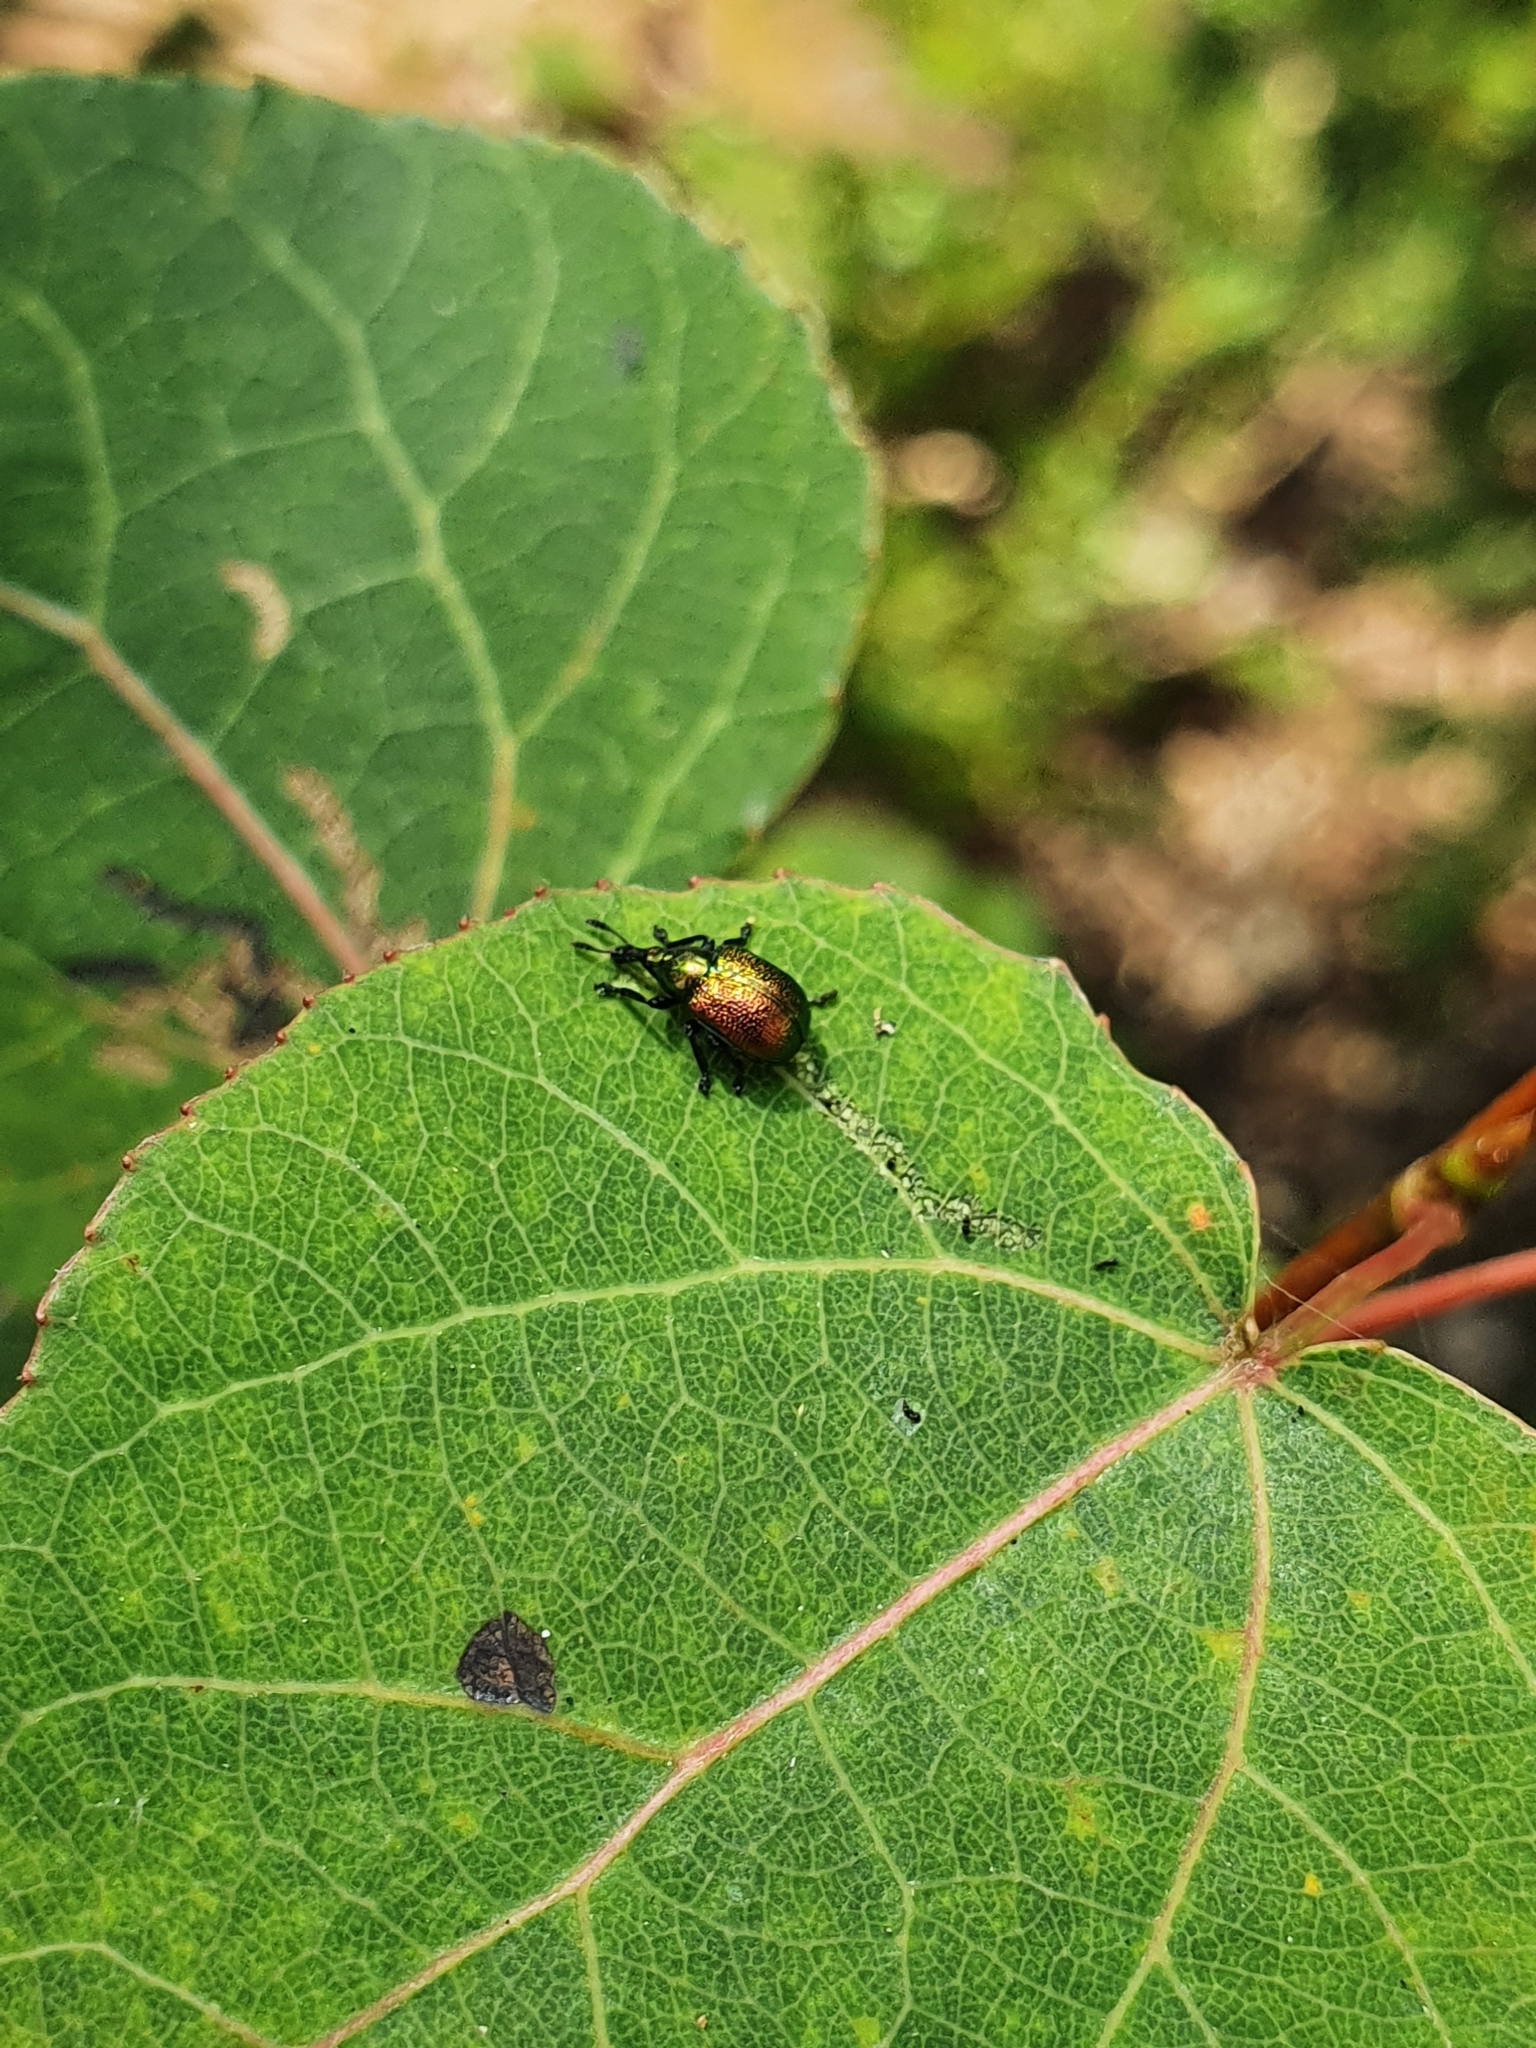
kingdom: Animalia
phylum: Arthropoda
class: Insecta
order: Coleoptera
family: Attelabidae
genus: Byctiscus
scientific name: Byctiscus populi
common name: Leaf-rolling weevil
